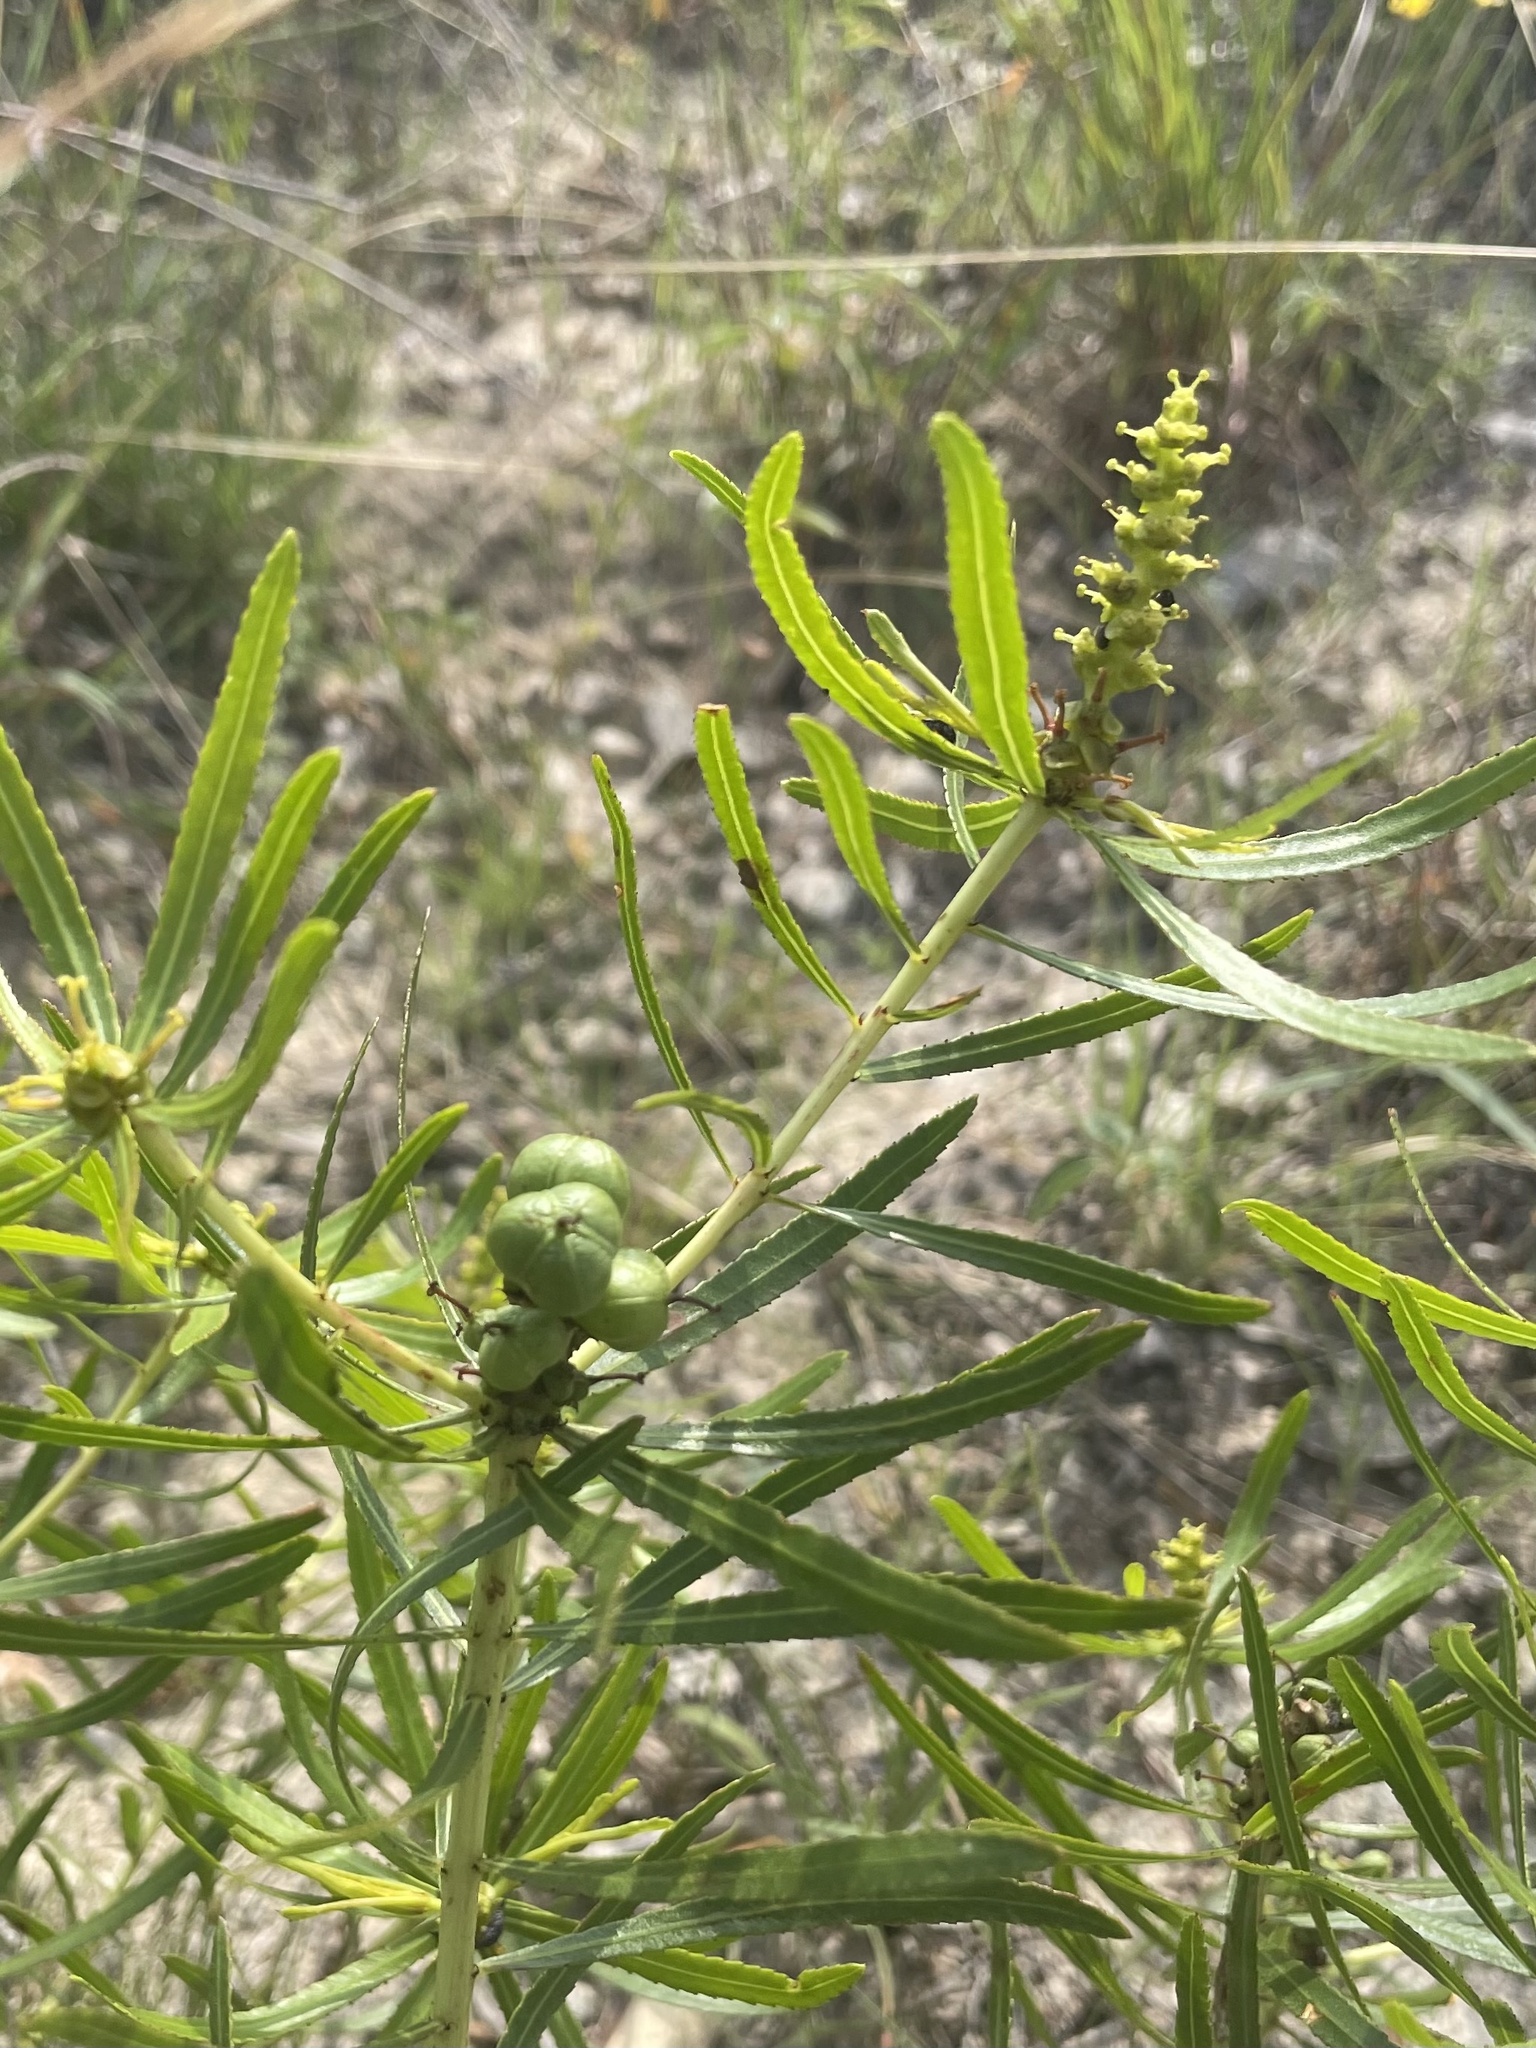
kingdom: Plantae
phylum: Tracheophyta
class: Magnoliopsida
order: Malpighiales
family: Euphorbiaceae
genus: Stillingia
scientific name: Stillingia texana
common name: Texas stillingia
